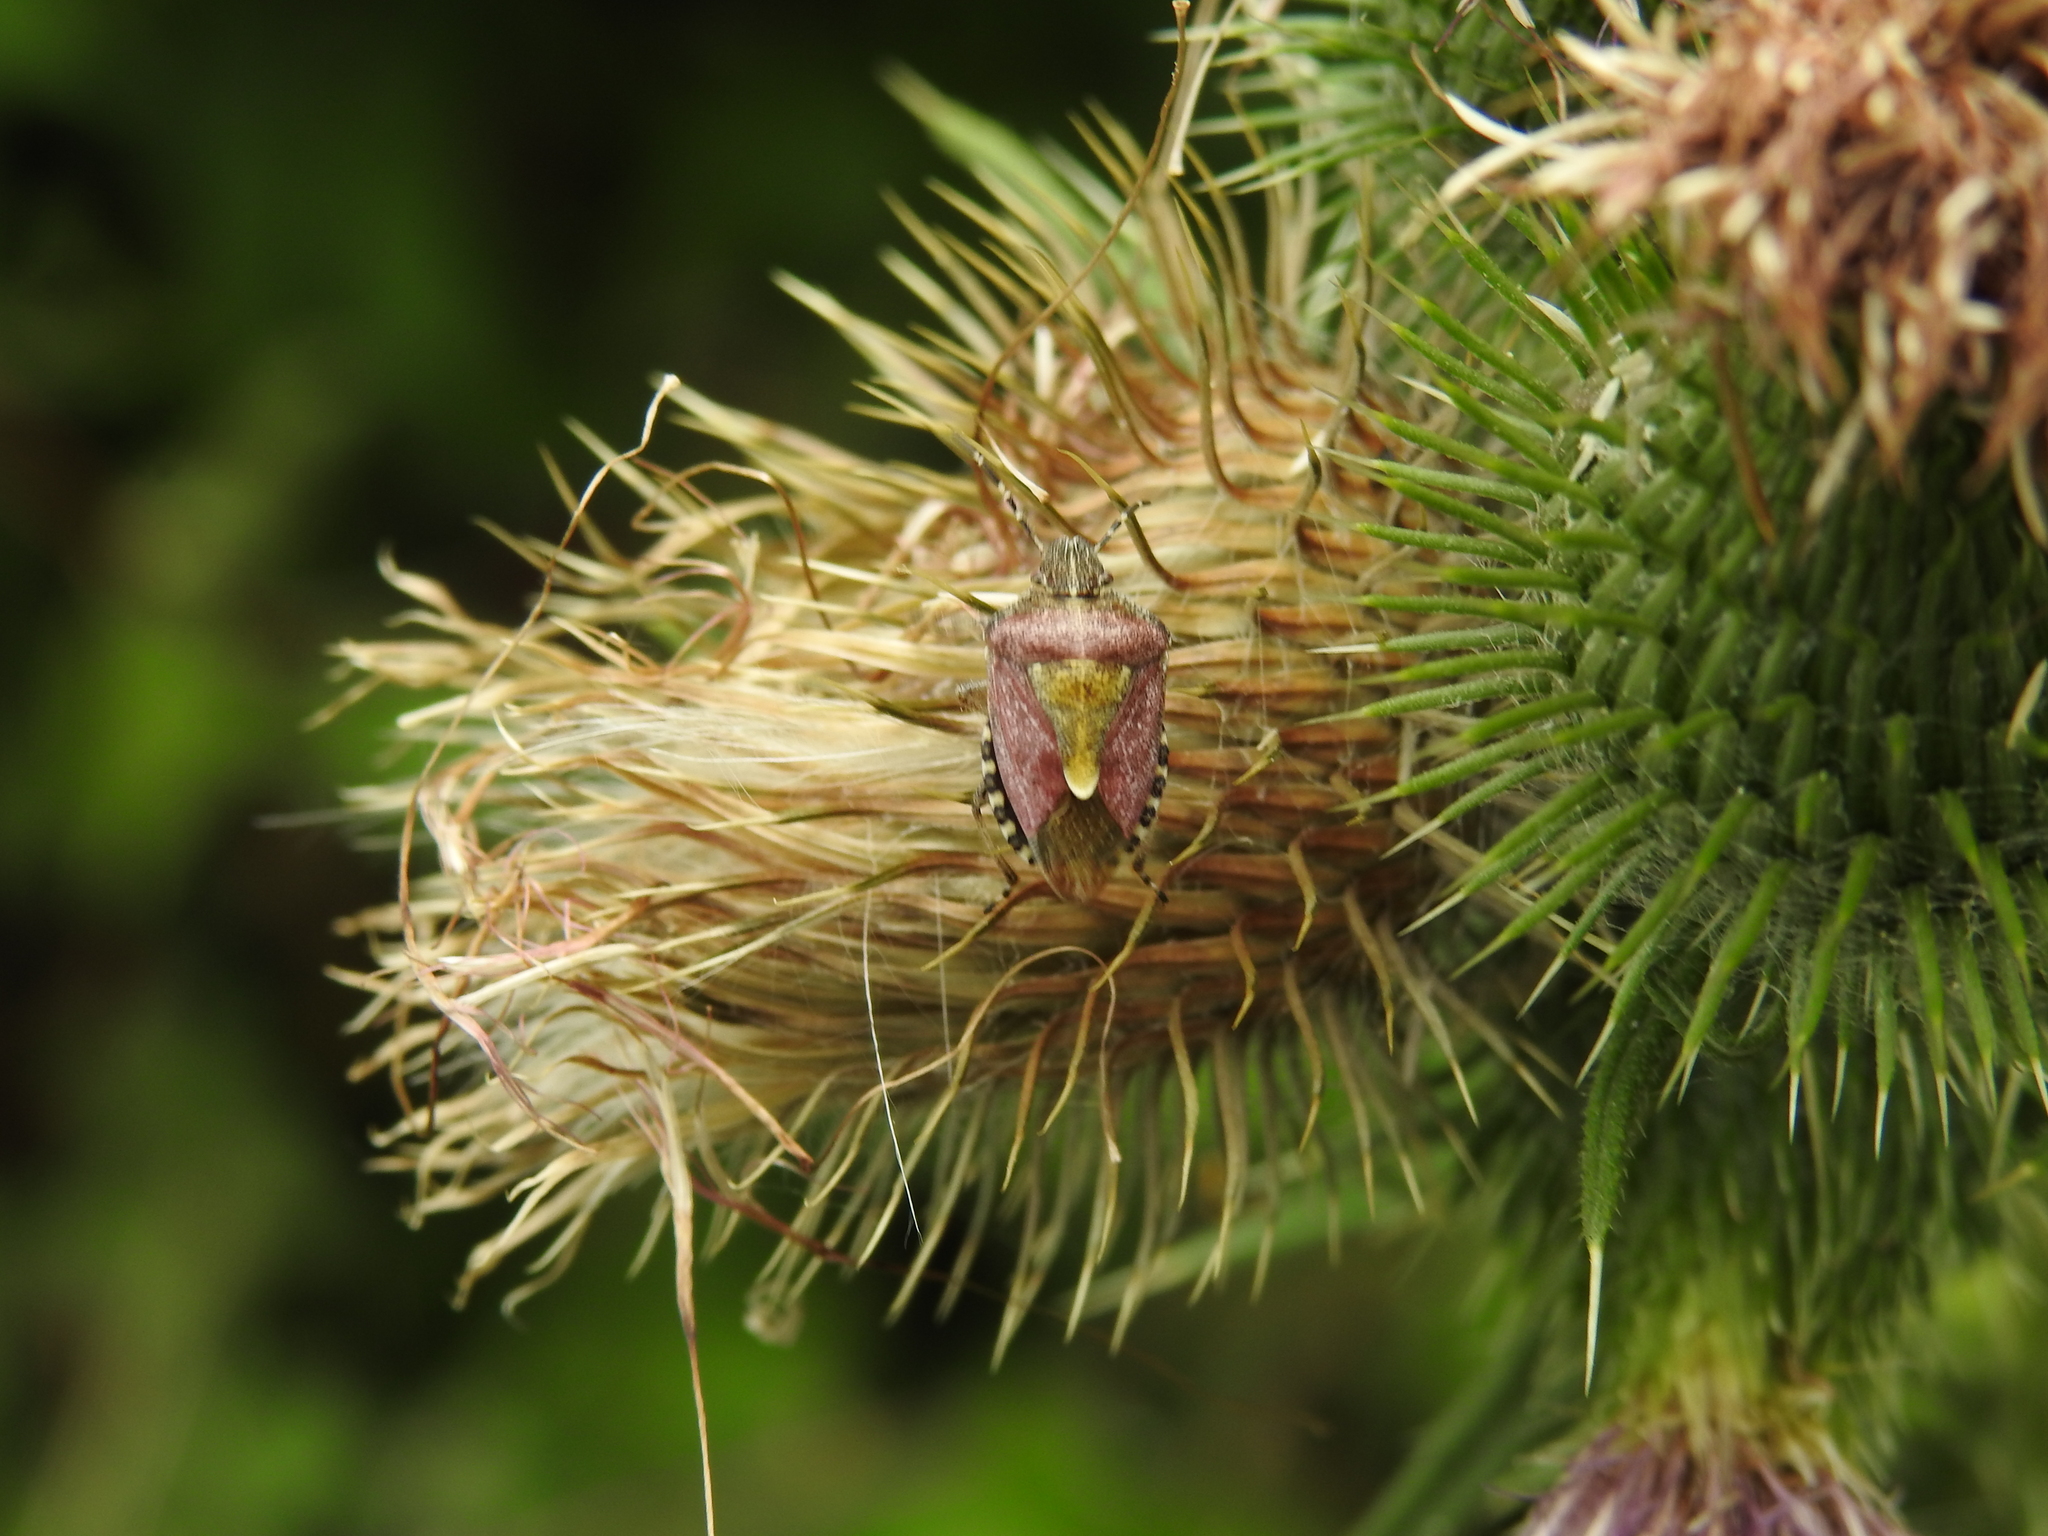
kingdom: Animalia
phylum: Arthropoda
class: Insecta
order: Hemiptera
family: Pentatomidae
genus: Dolycoris
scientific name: Dolycoris baccarum
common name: Sloe bug
